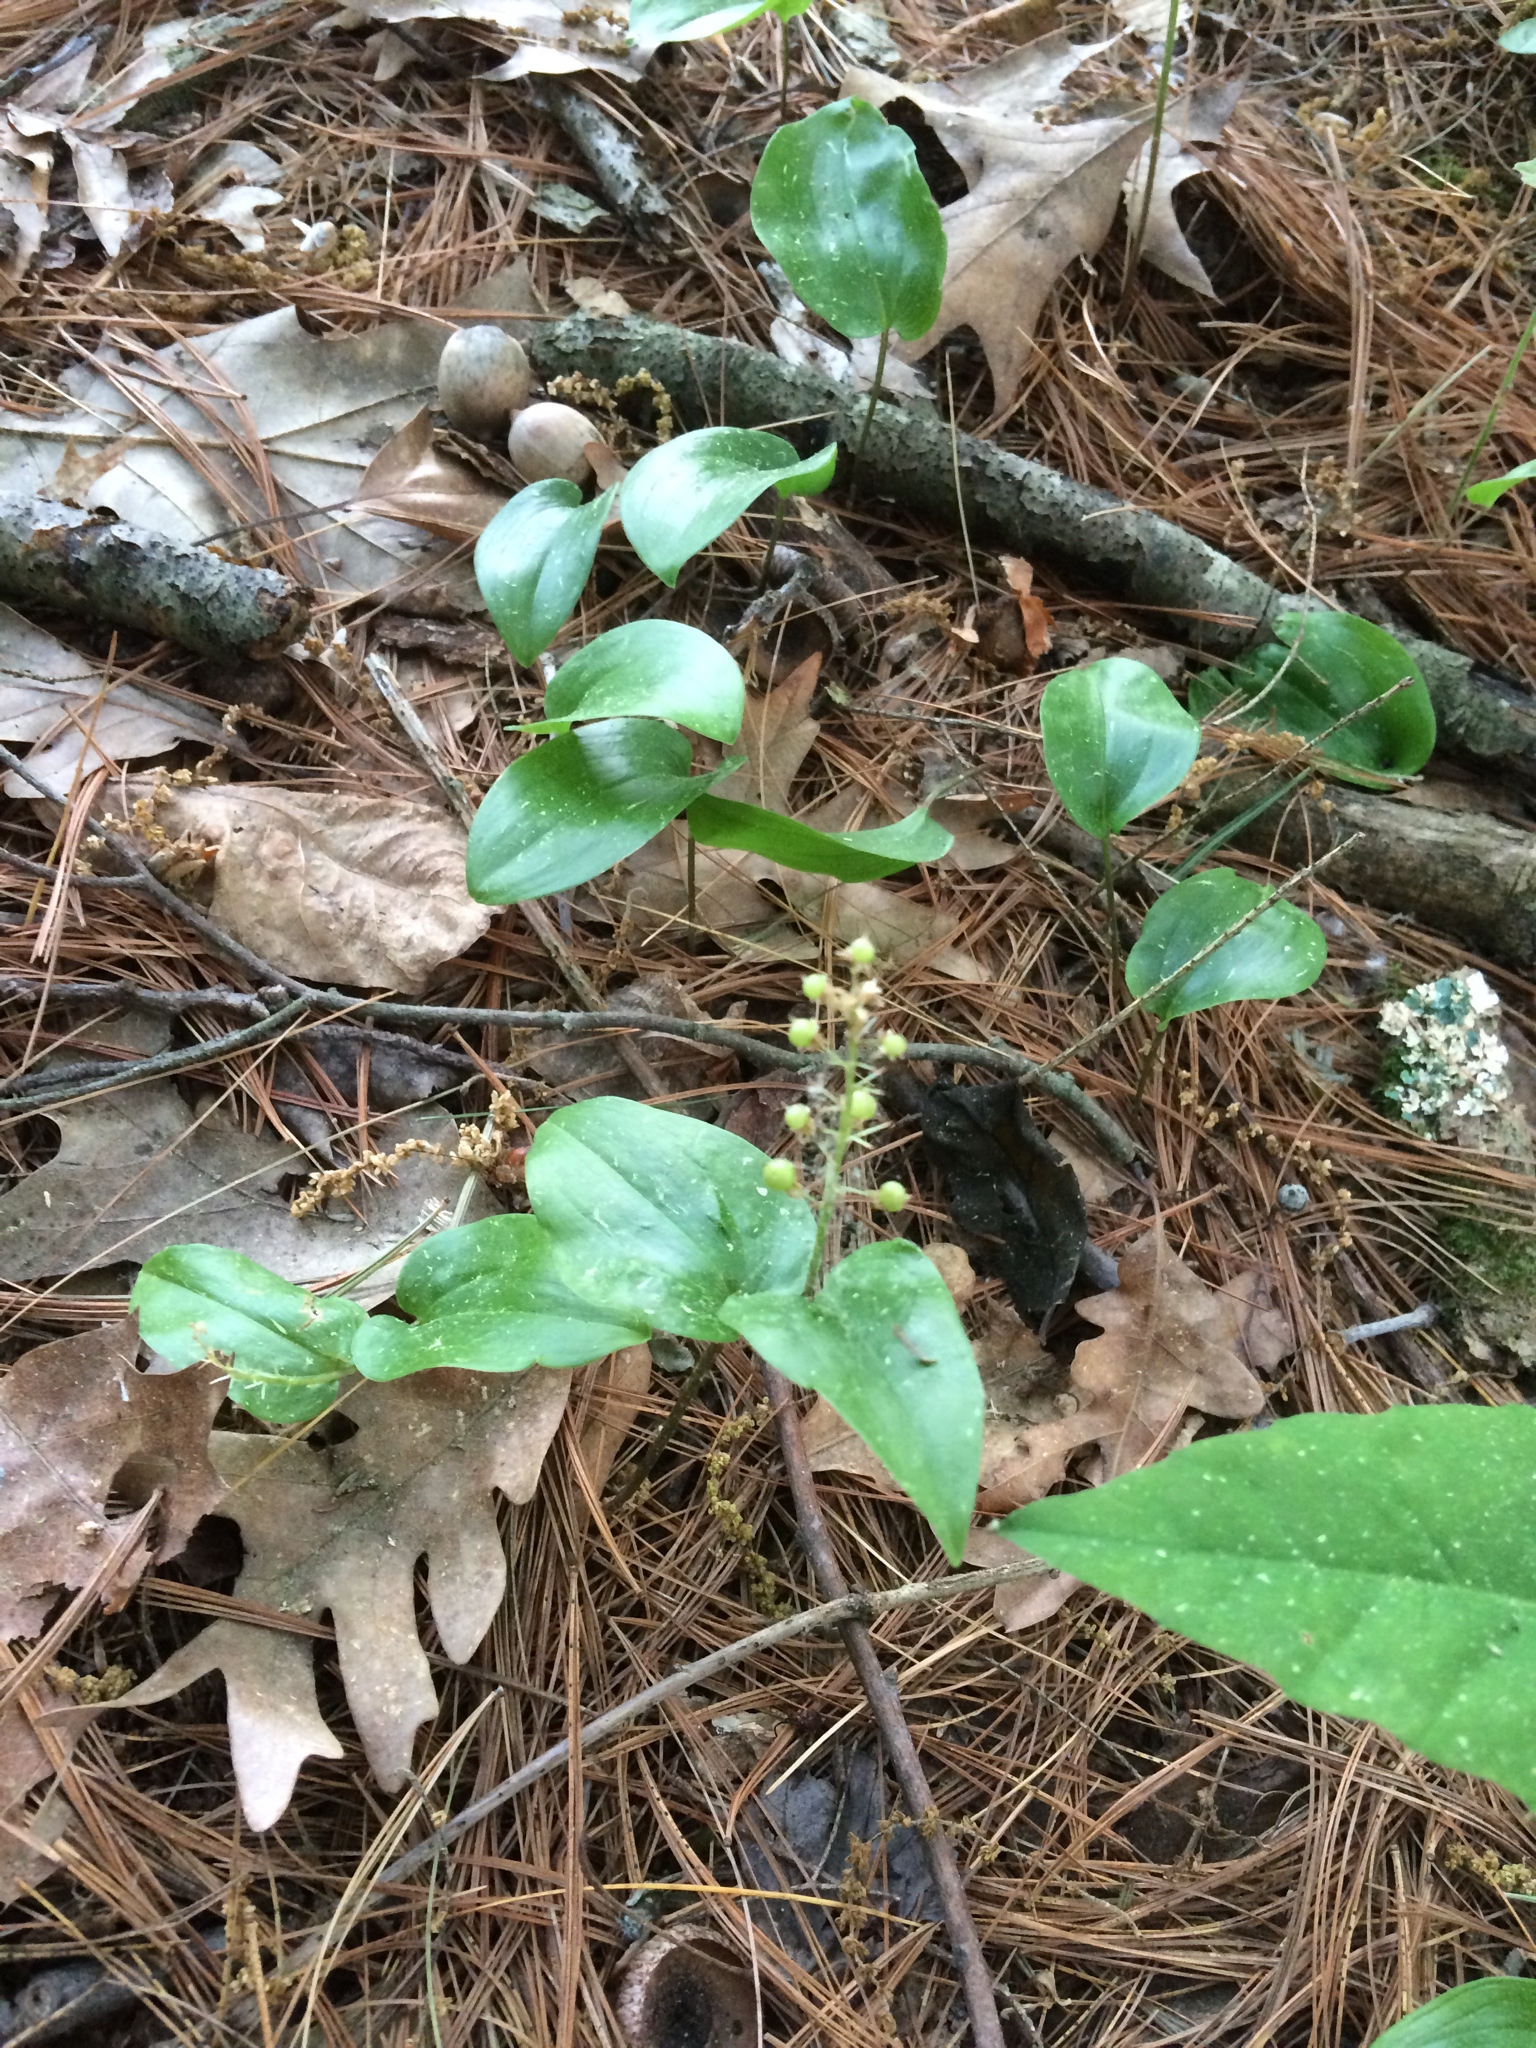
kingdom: Plantae
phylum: Tracheophyta
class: Liliopsida
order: Asparagales
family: Asparagaceae
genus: Maianthemum
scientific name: Maianthemum canadense
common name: False lily-of-the-valley
